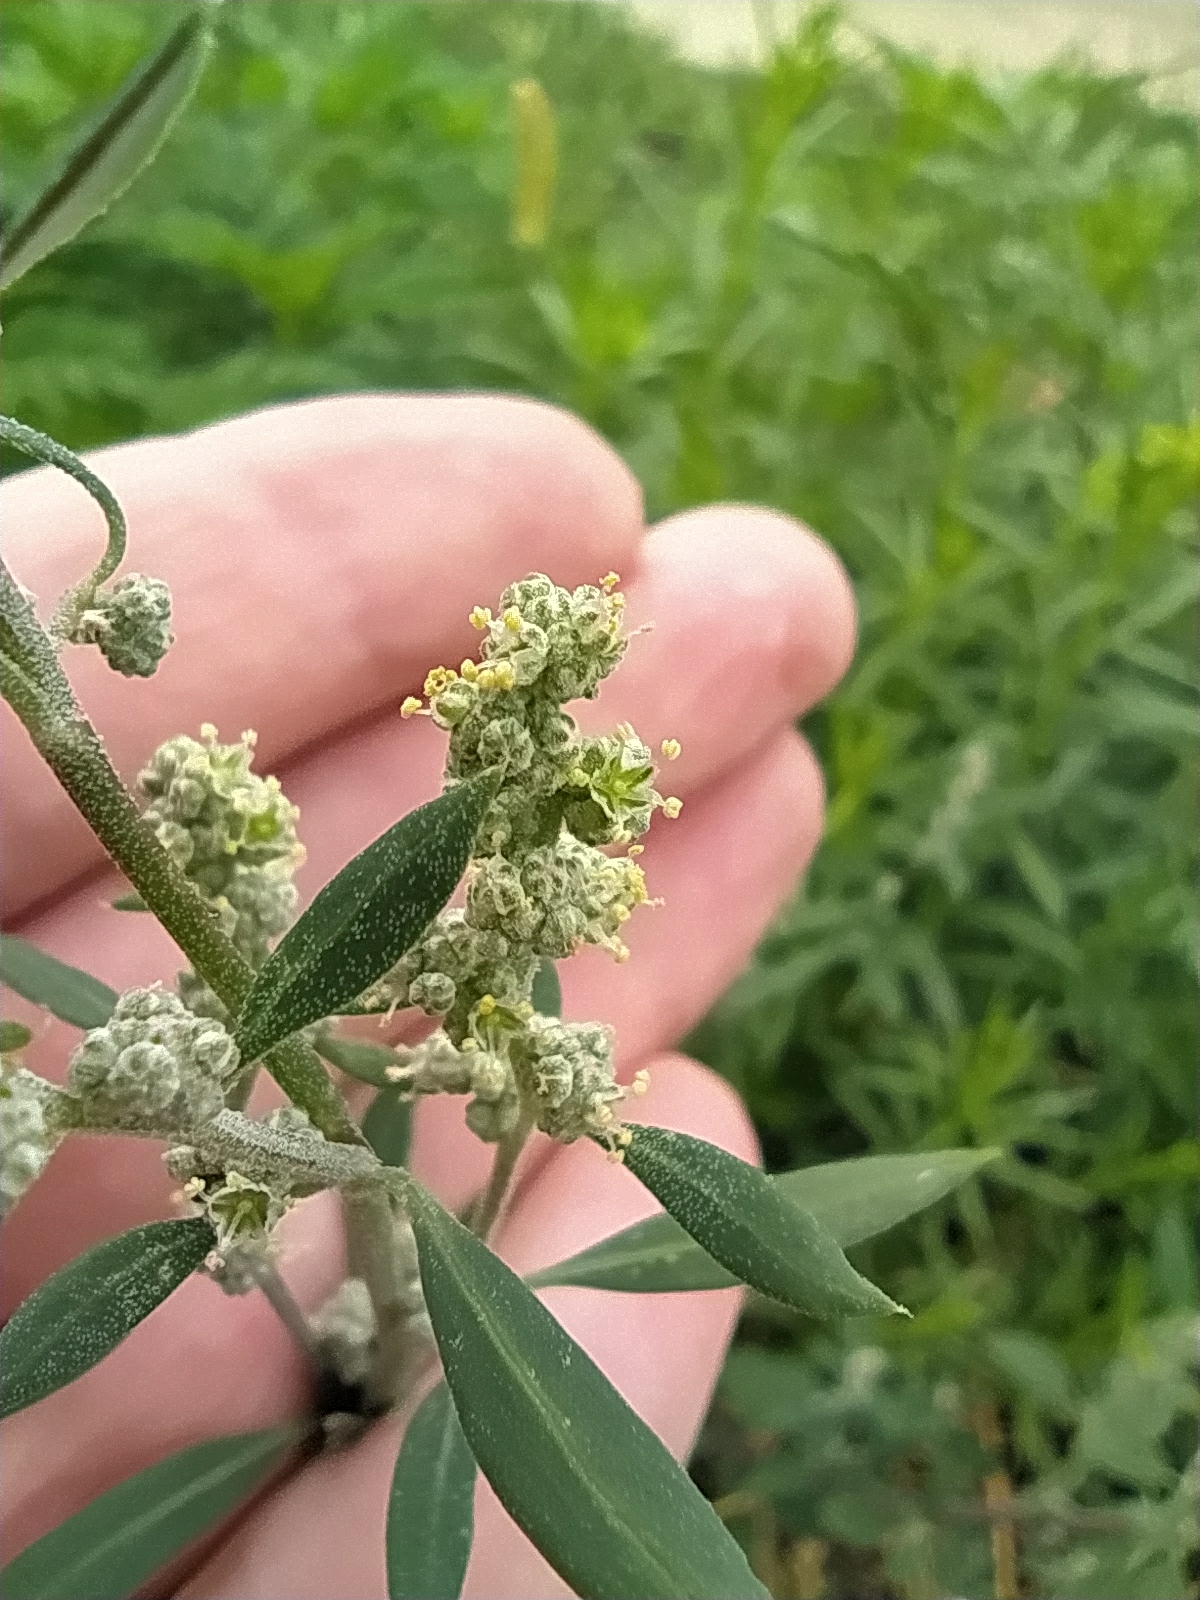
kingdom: Plantae
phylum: Tracheophyta
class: Magnoliopsida
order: Caryophyllales
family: Amaranthaceae
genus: Chenopodium
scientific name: Chenopodium album
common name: Fat-hen
